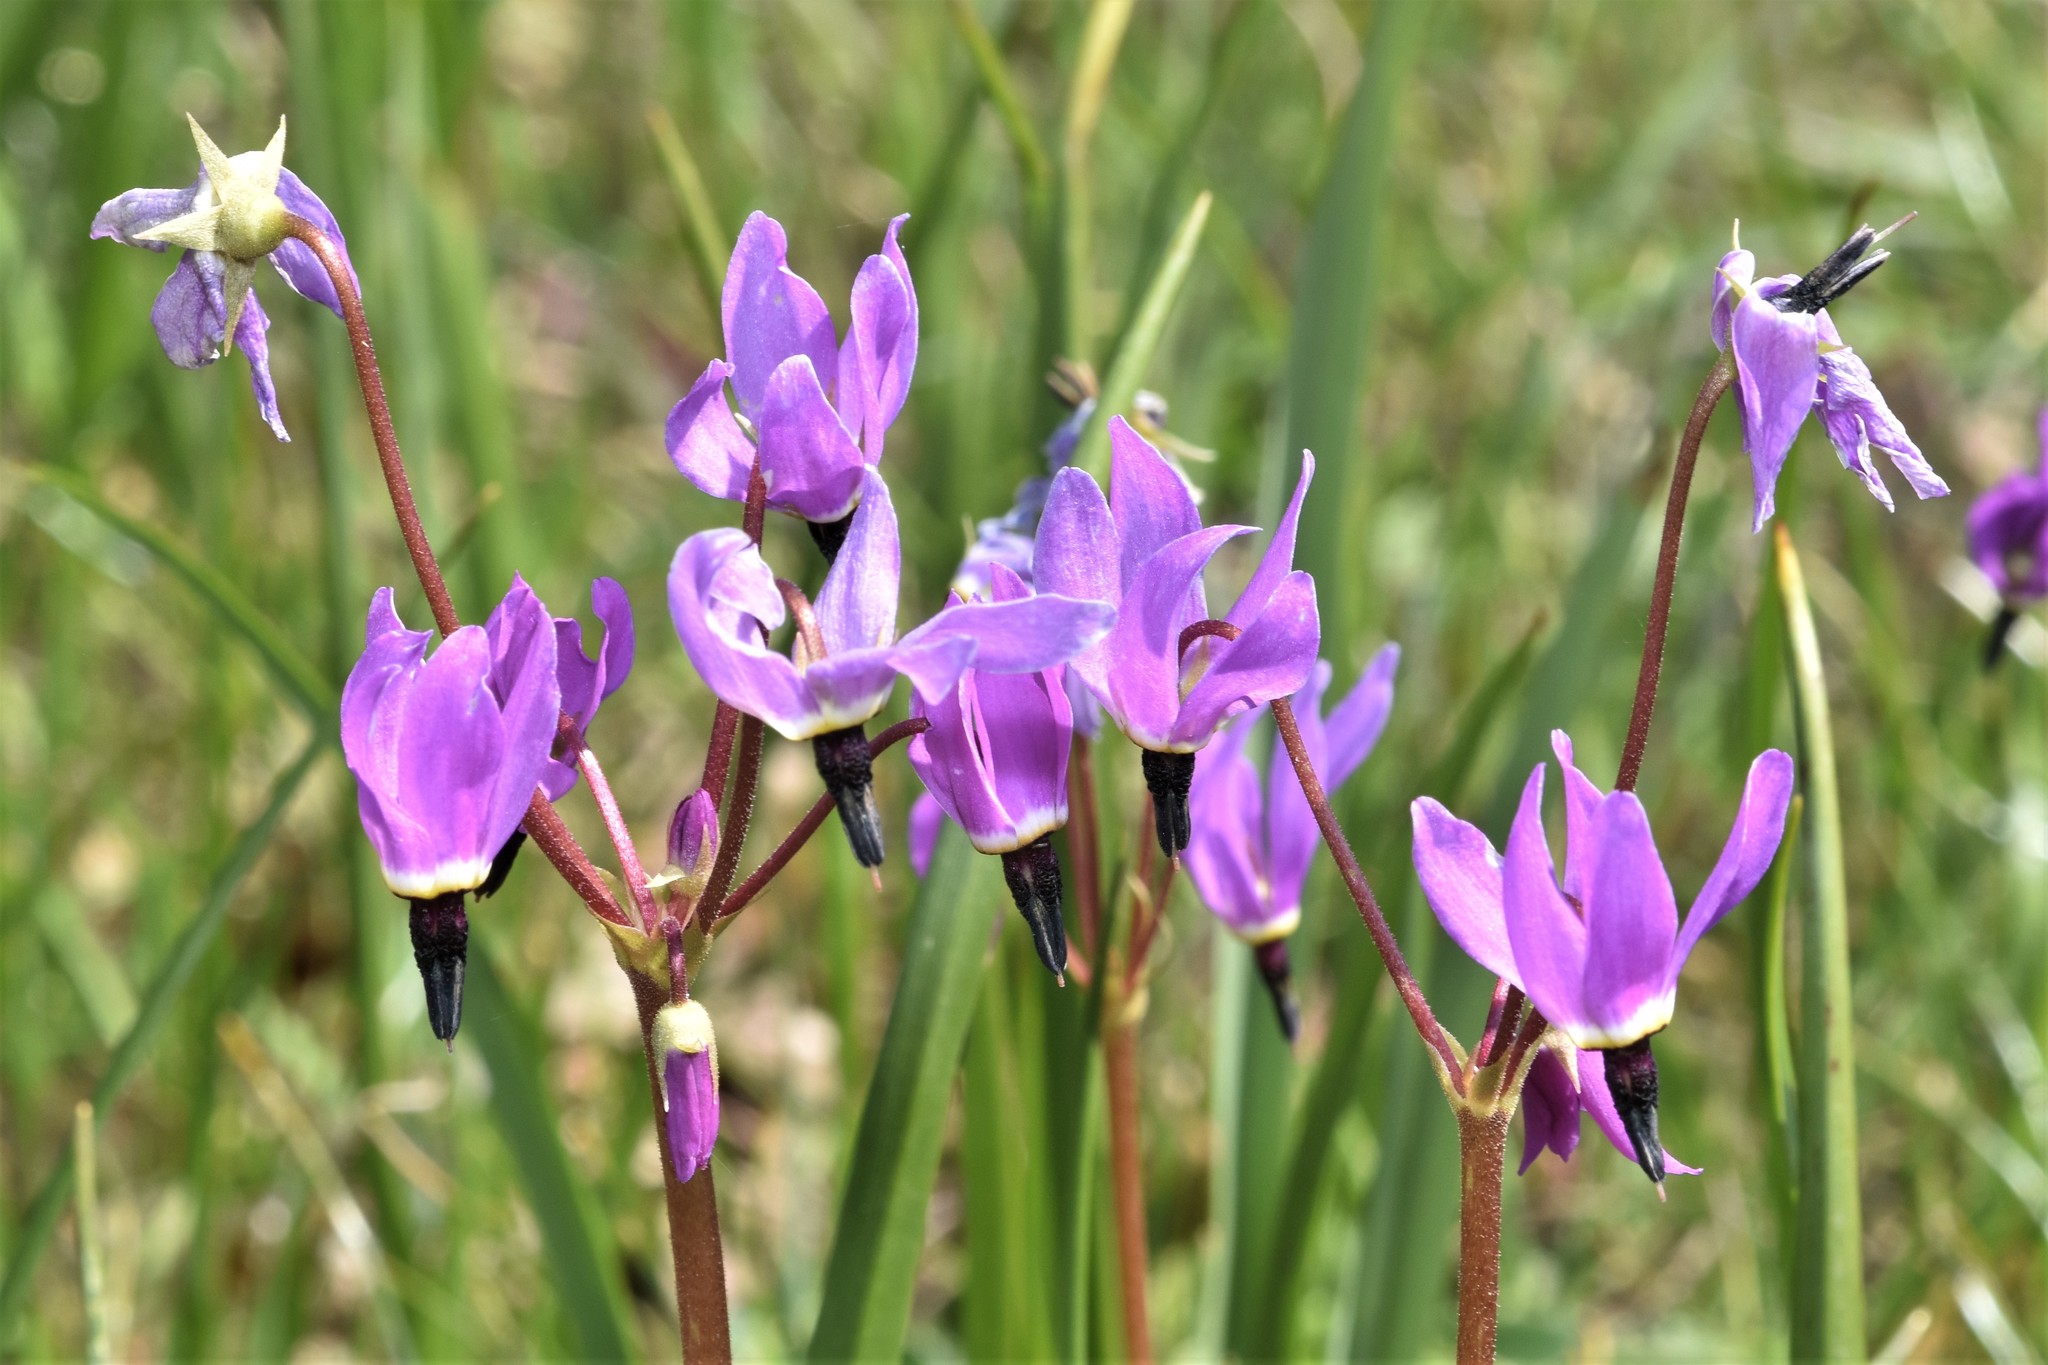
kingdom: Plantae
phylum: Tracheophyta
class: Magnoliopsida
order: Ericales
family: Primulaceae
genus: Dodecatheon
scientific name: Dodecatheon hendersonii
